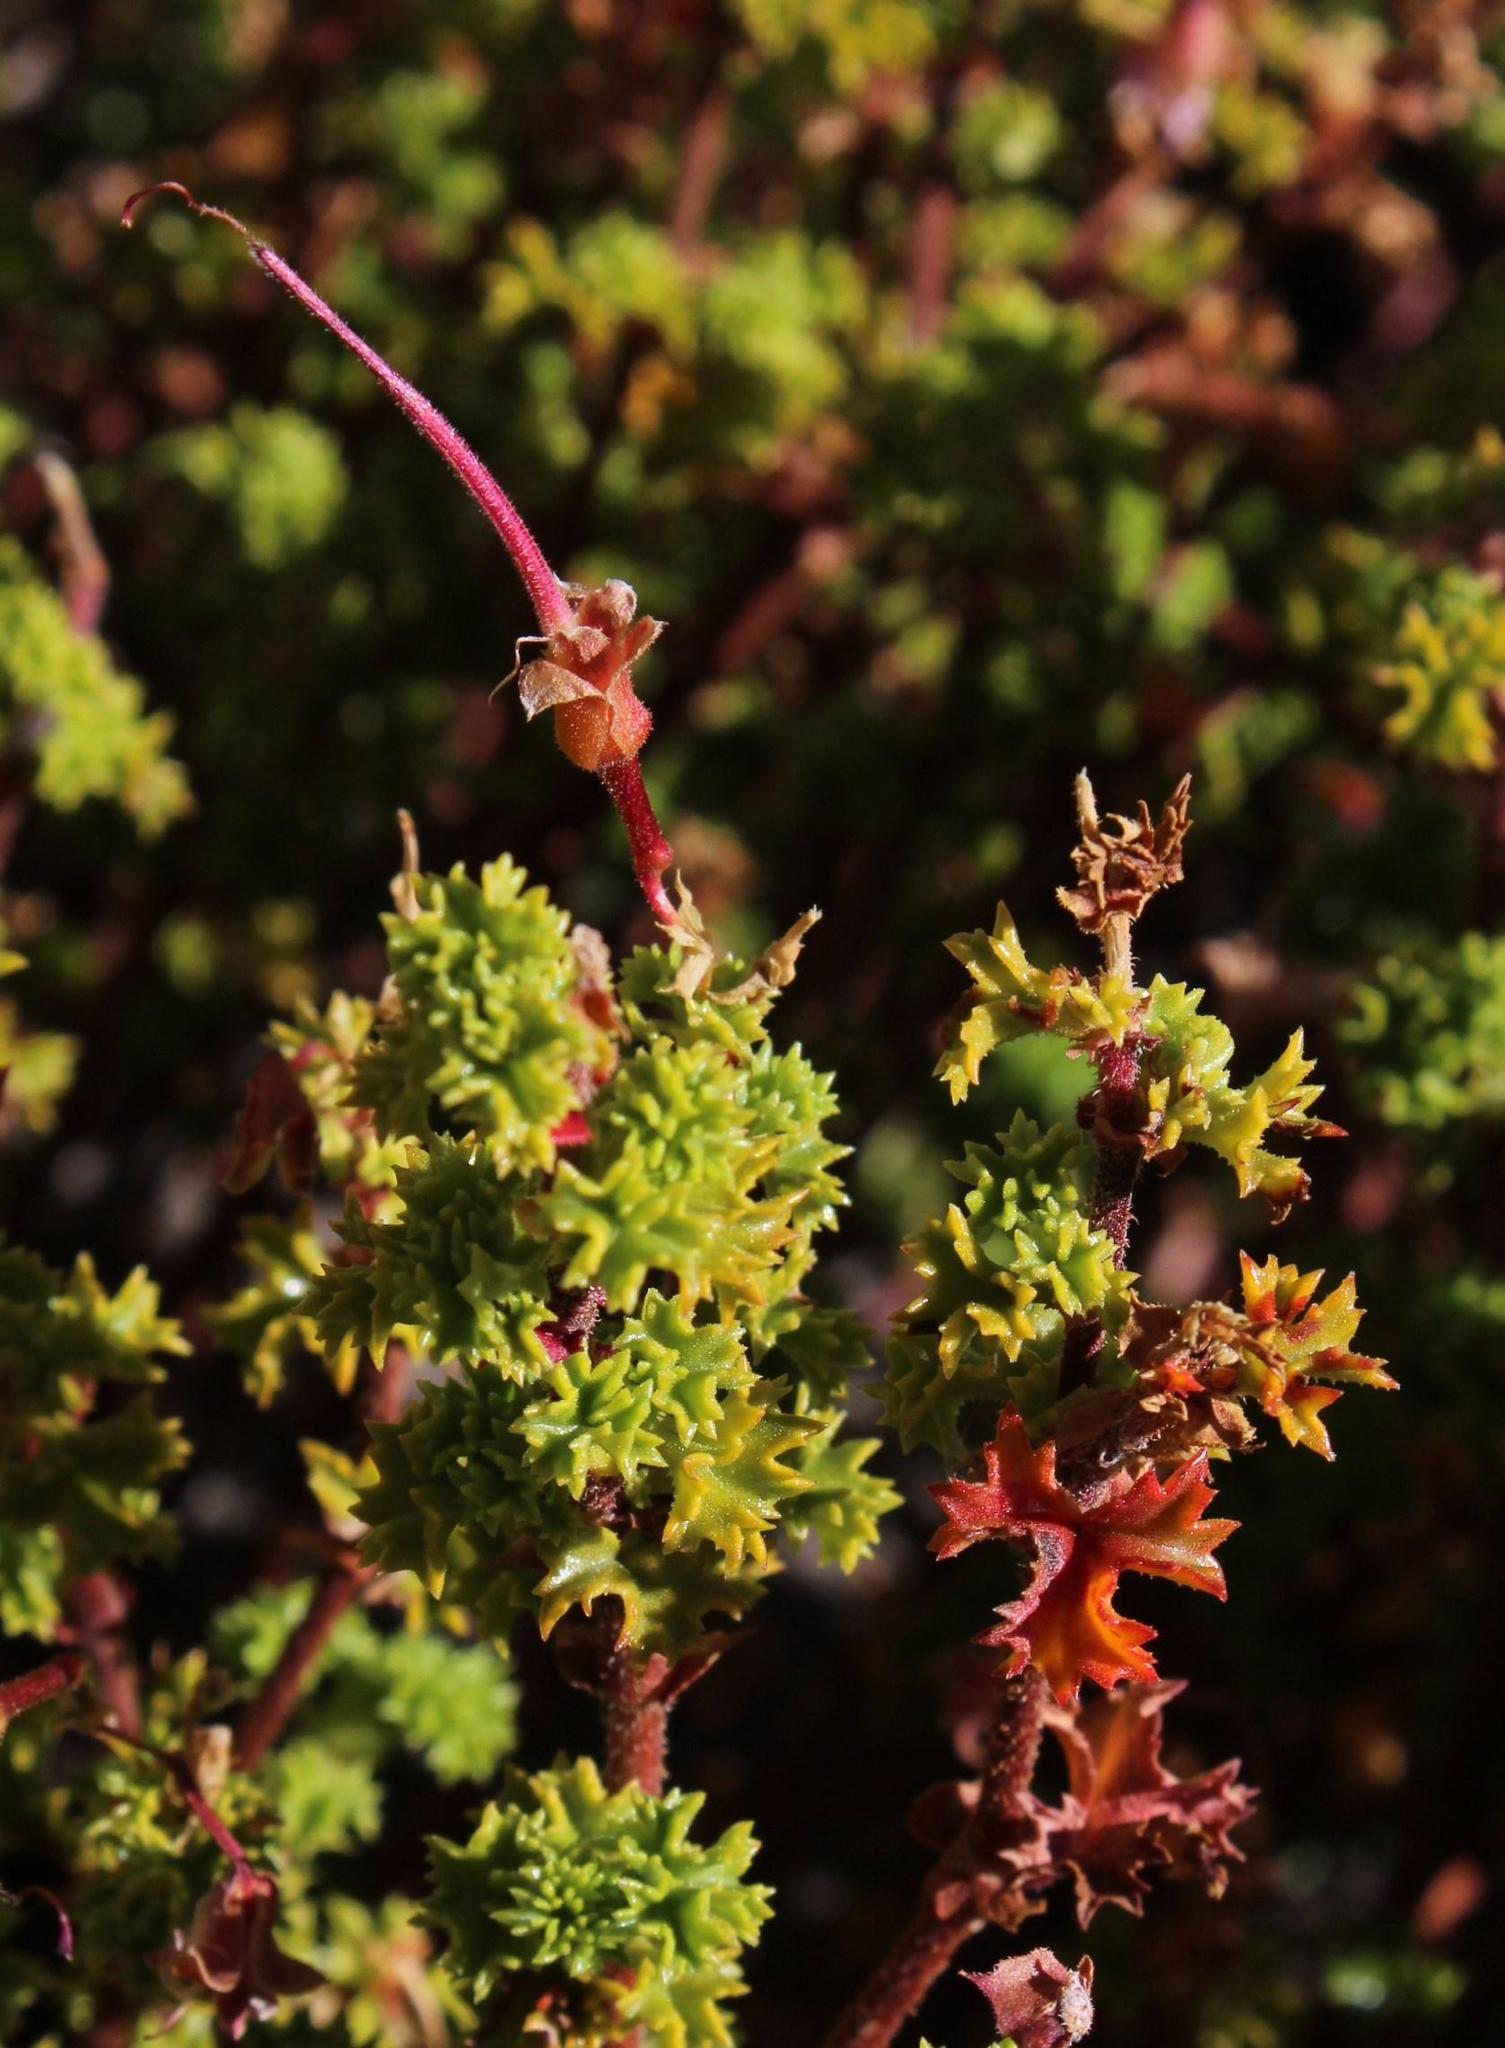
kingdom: Plantae
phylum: Tracheophyta
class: Magnoliopsida
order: Geraniales
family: Geraniaceae
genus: Pelargonium
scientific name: Pelargonium englerianum
